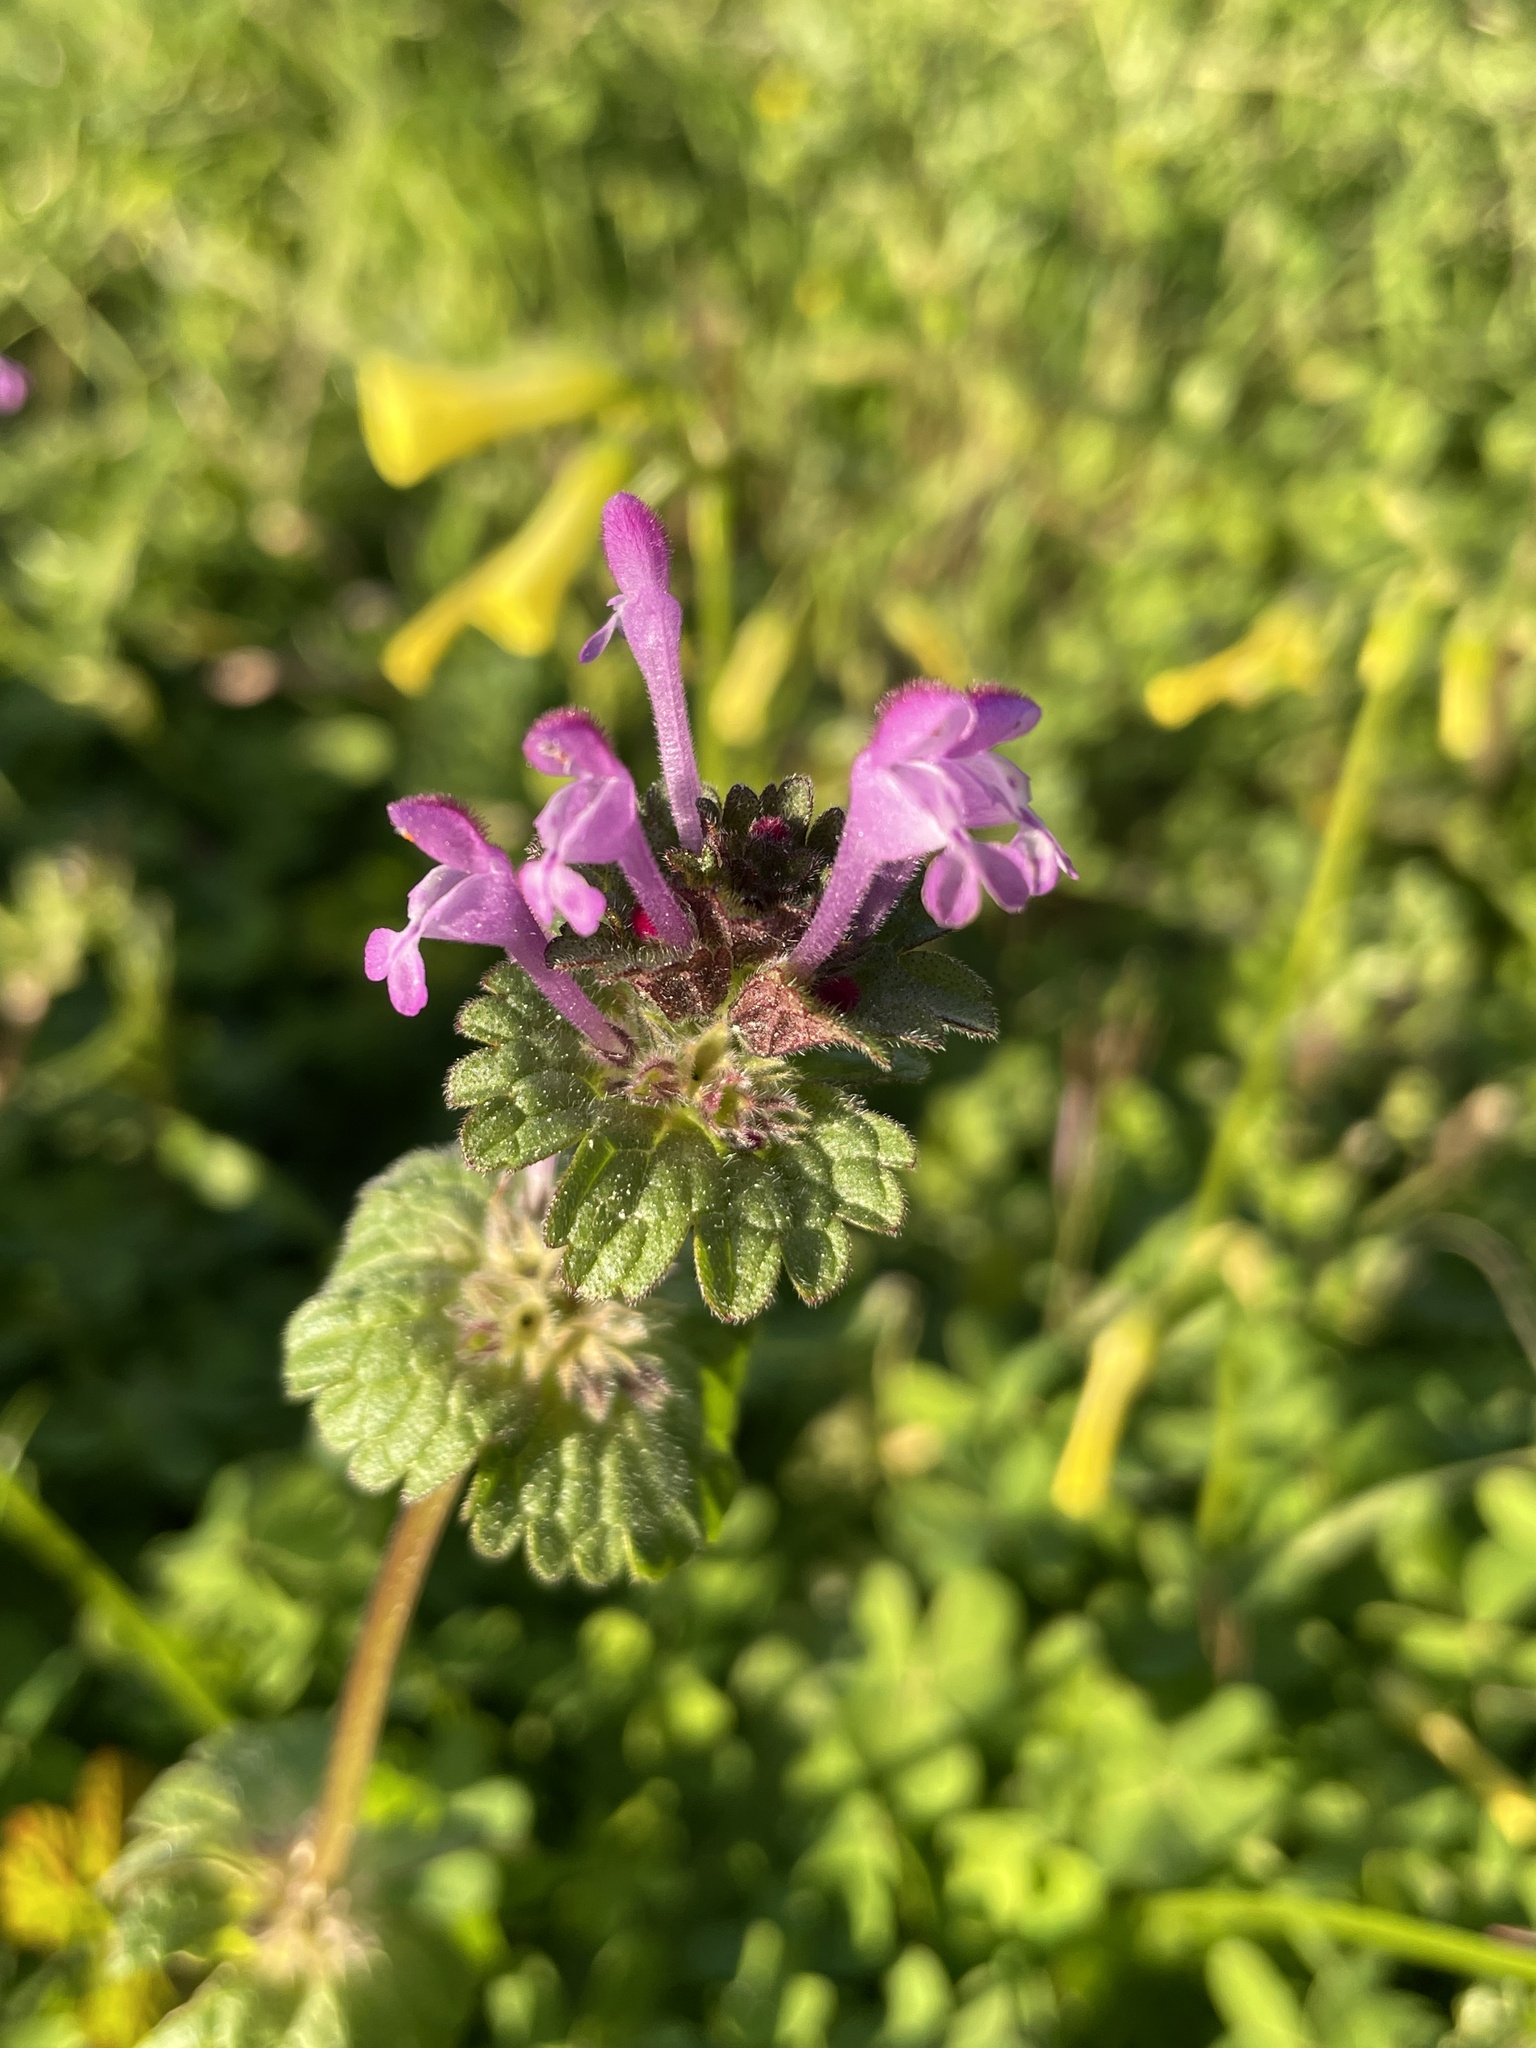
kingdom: Plantae
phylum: Tracheophyta
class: Magnoliopsida
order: Lamiales
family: Lamiaceae
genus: Lamium
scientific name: Lamium amplexicaule
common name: Henbit dead-nettle
